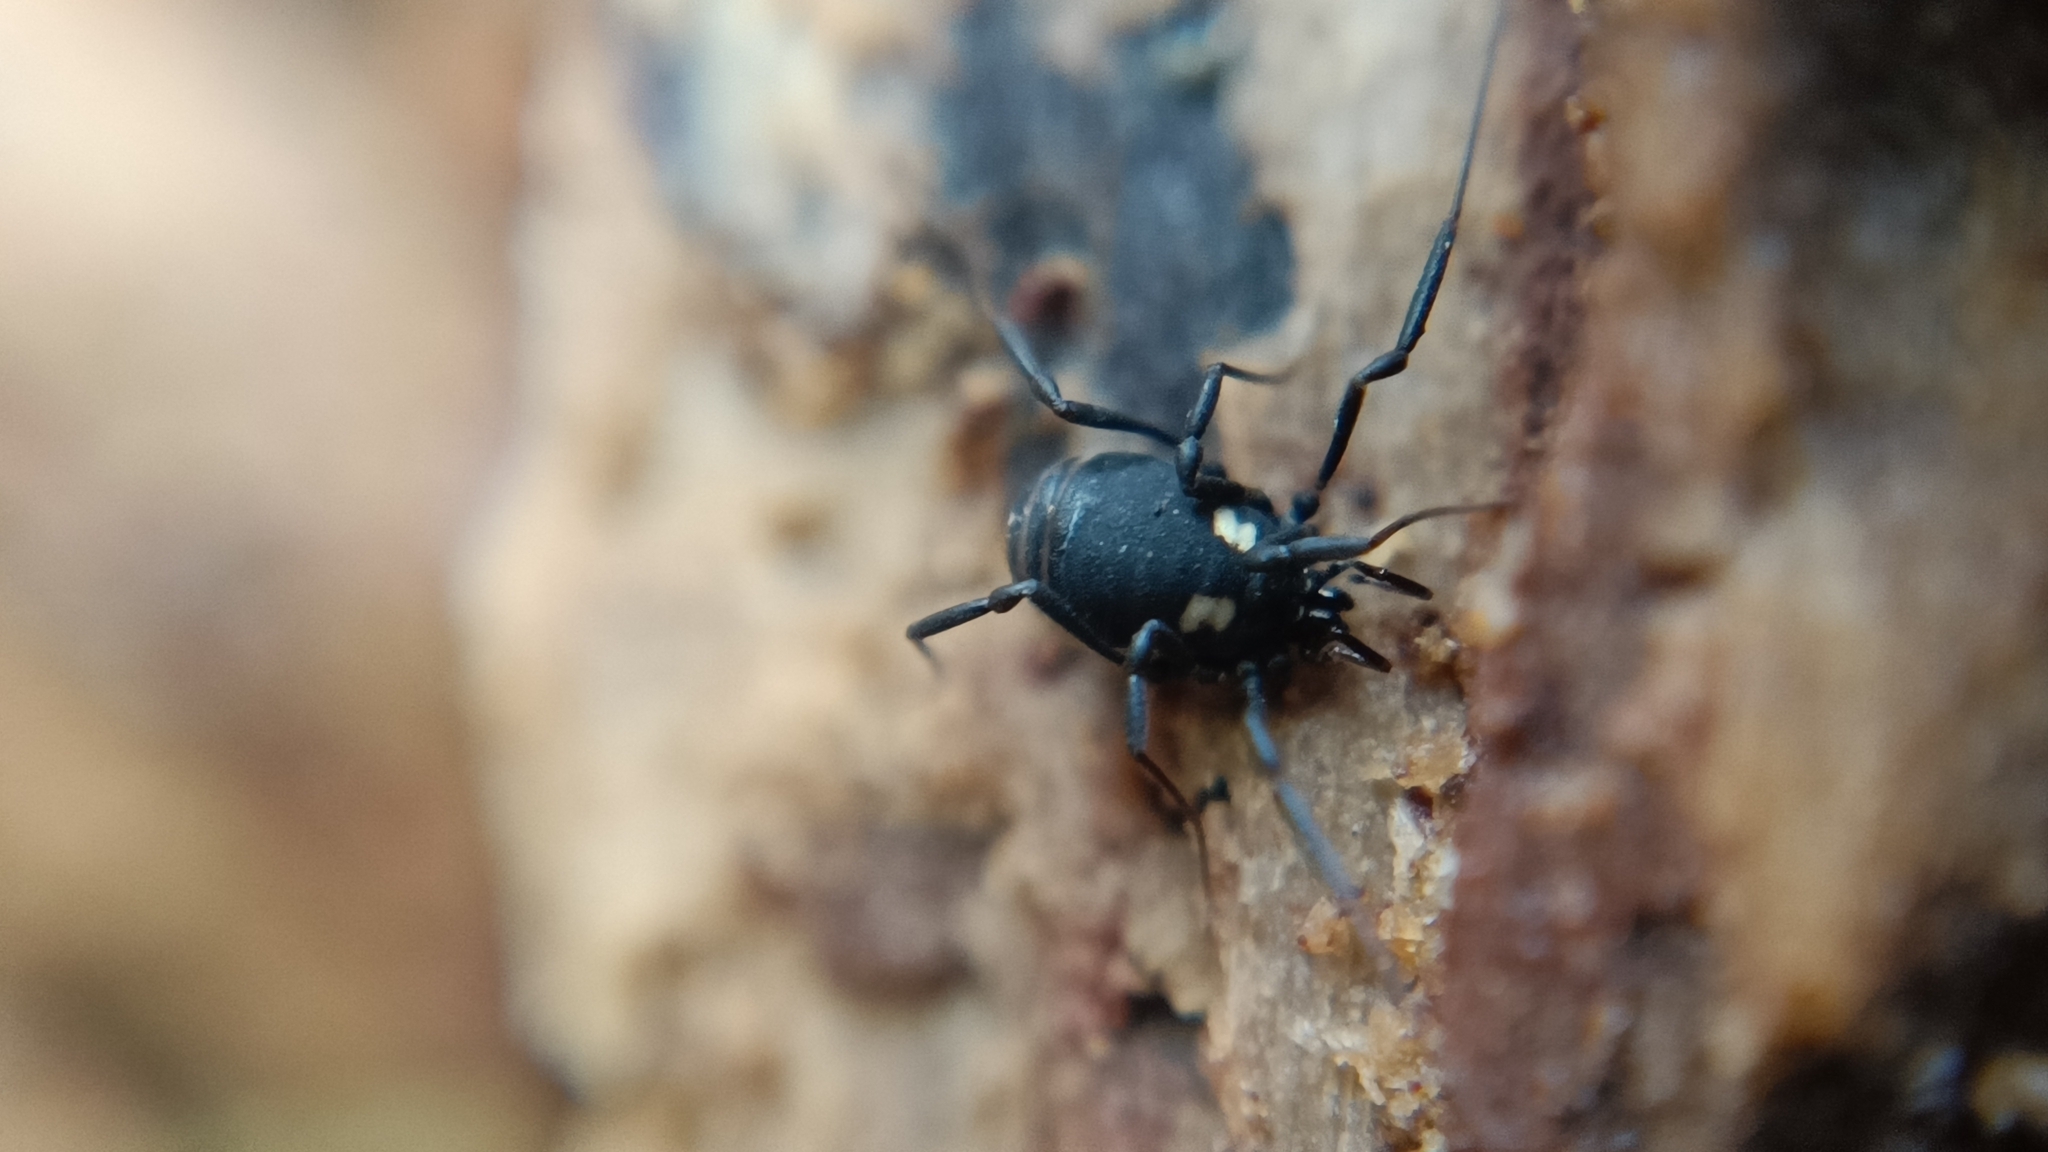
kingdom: Animalia
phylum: Arthropoda
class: Arachnida
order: Opiliones
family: Nemastomatidae
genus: Nemastoma
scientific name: Nemastoma bimaculatum
